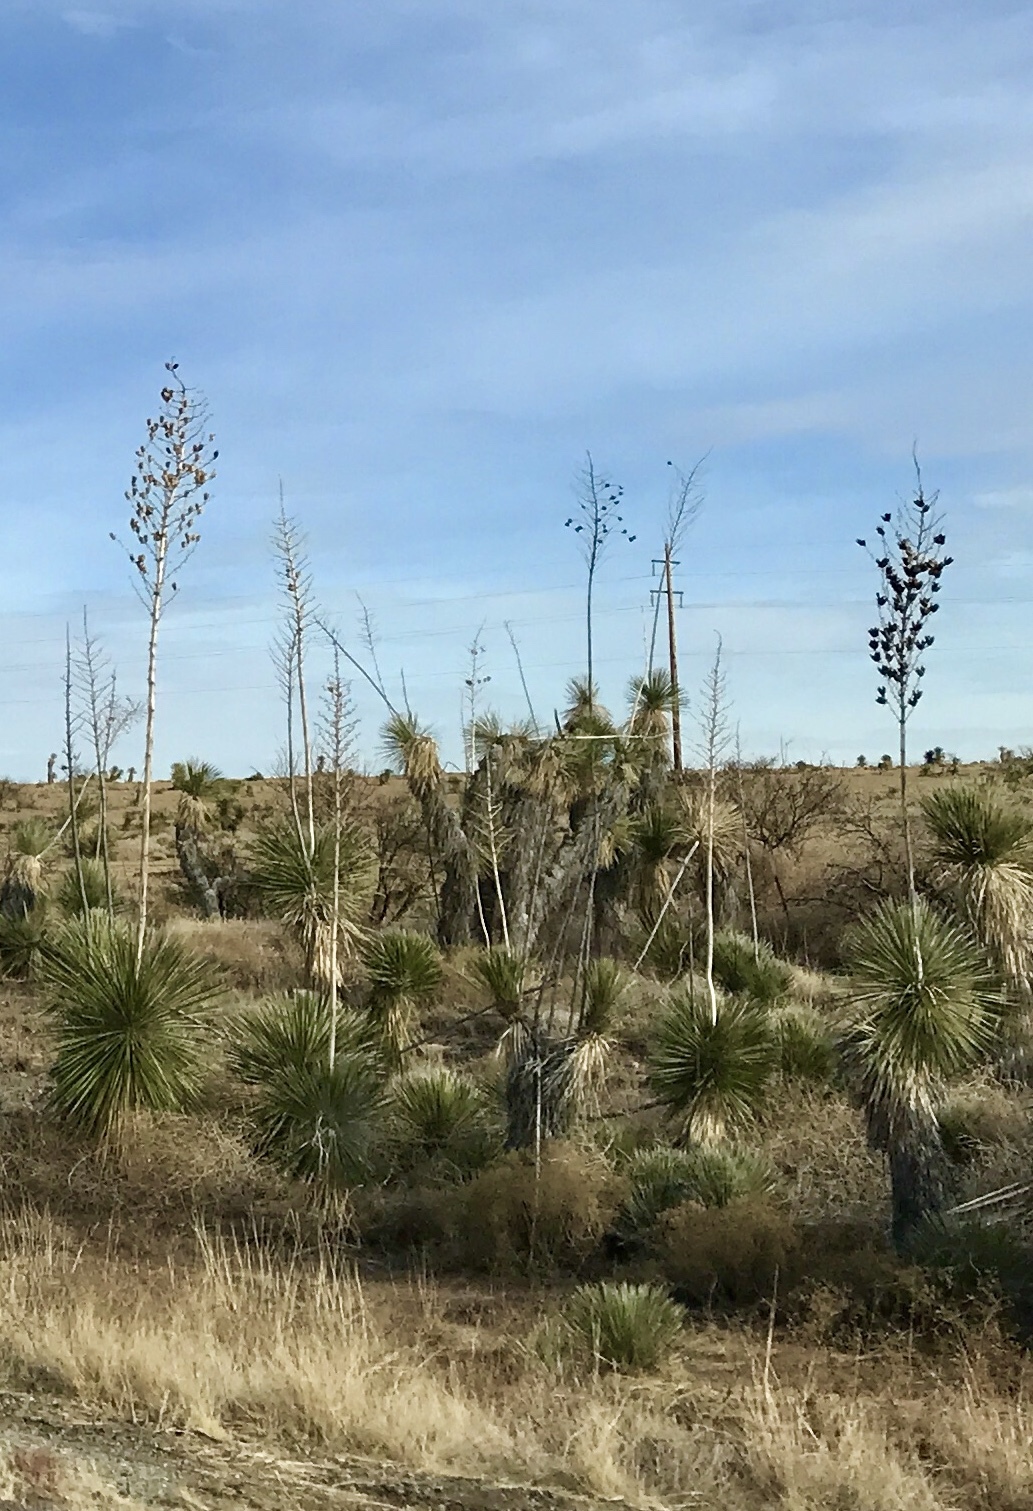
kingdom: Plantae
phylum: Tracheophyta
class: Liliopsida
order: Asparagales
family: Asparagaceae
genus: Yucca
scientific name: Yucca elata
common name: Palmella
